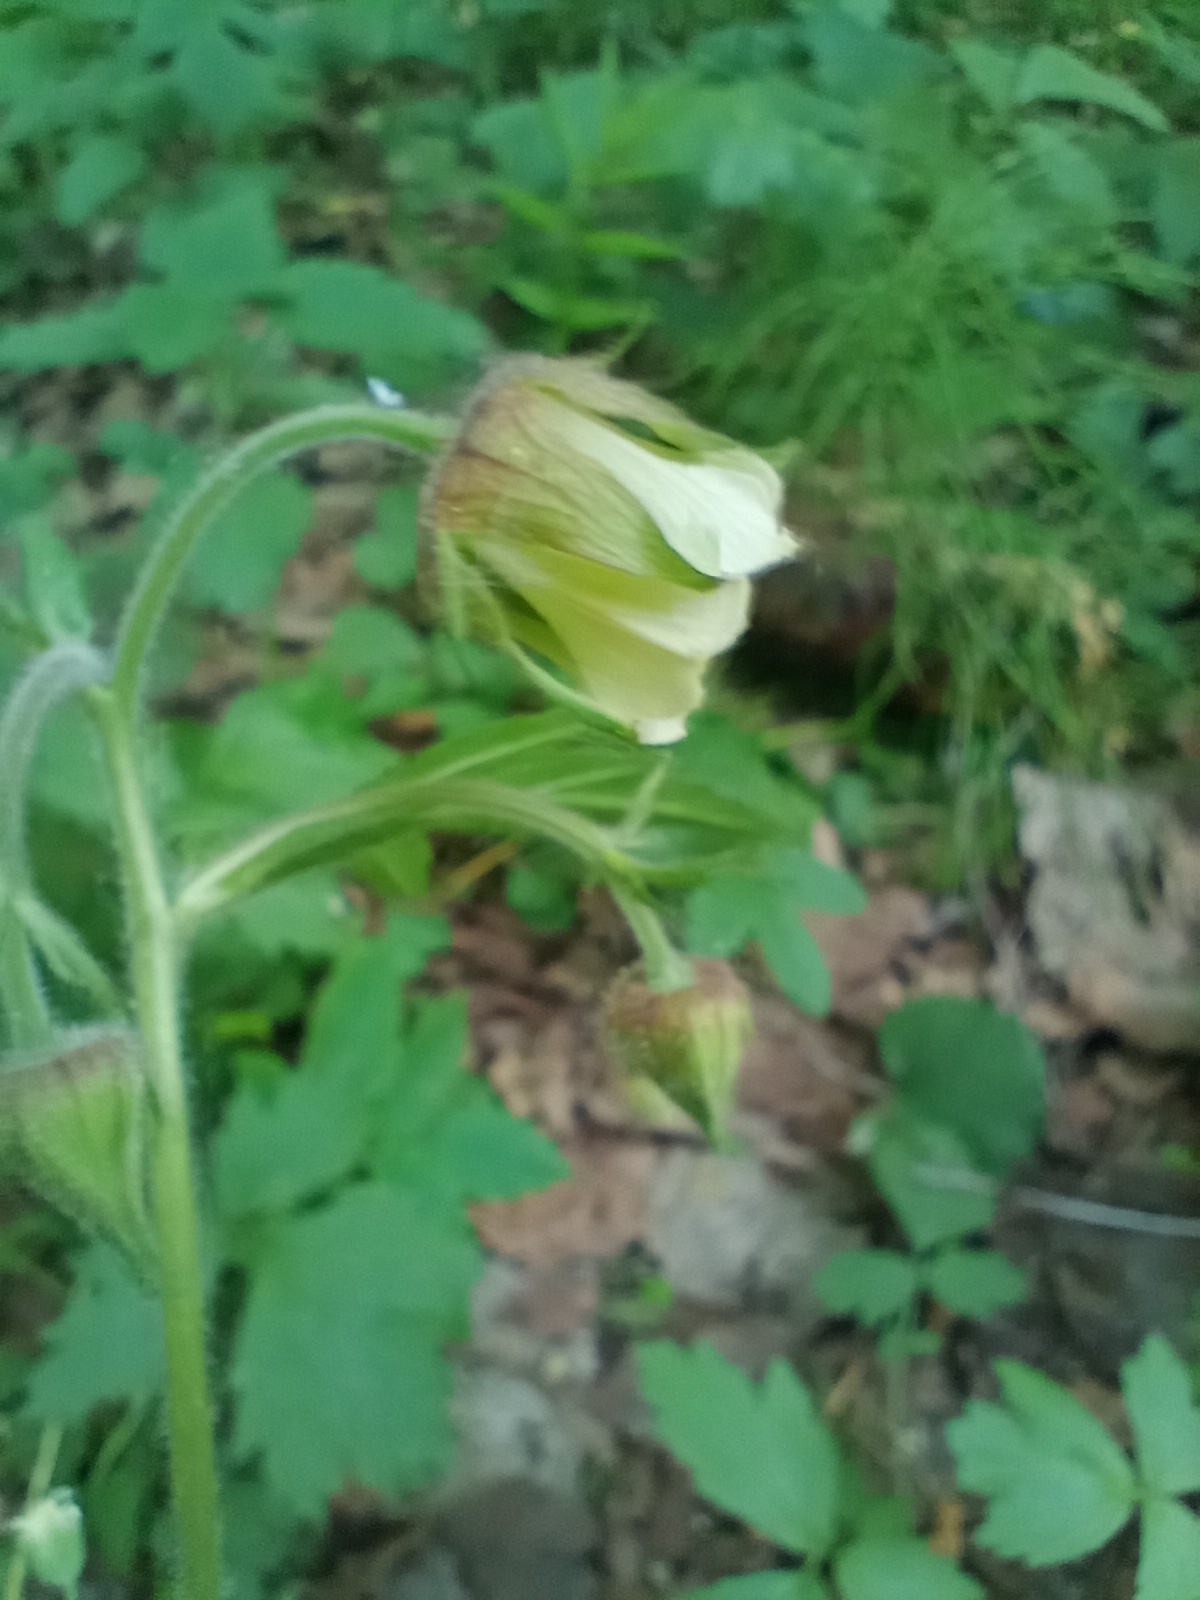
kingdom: Plantae
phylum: Tracheophyta
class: Magnoliopsida
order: Rosales
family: Rosaceae
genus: Geum
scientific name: Geum rivale
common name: Water avens
